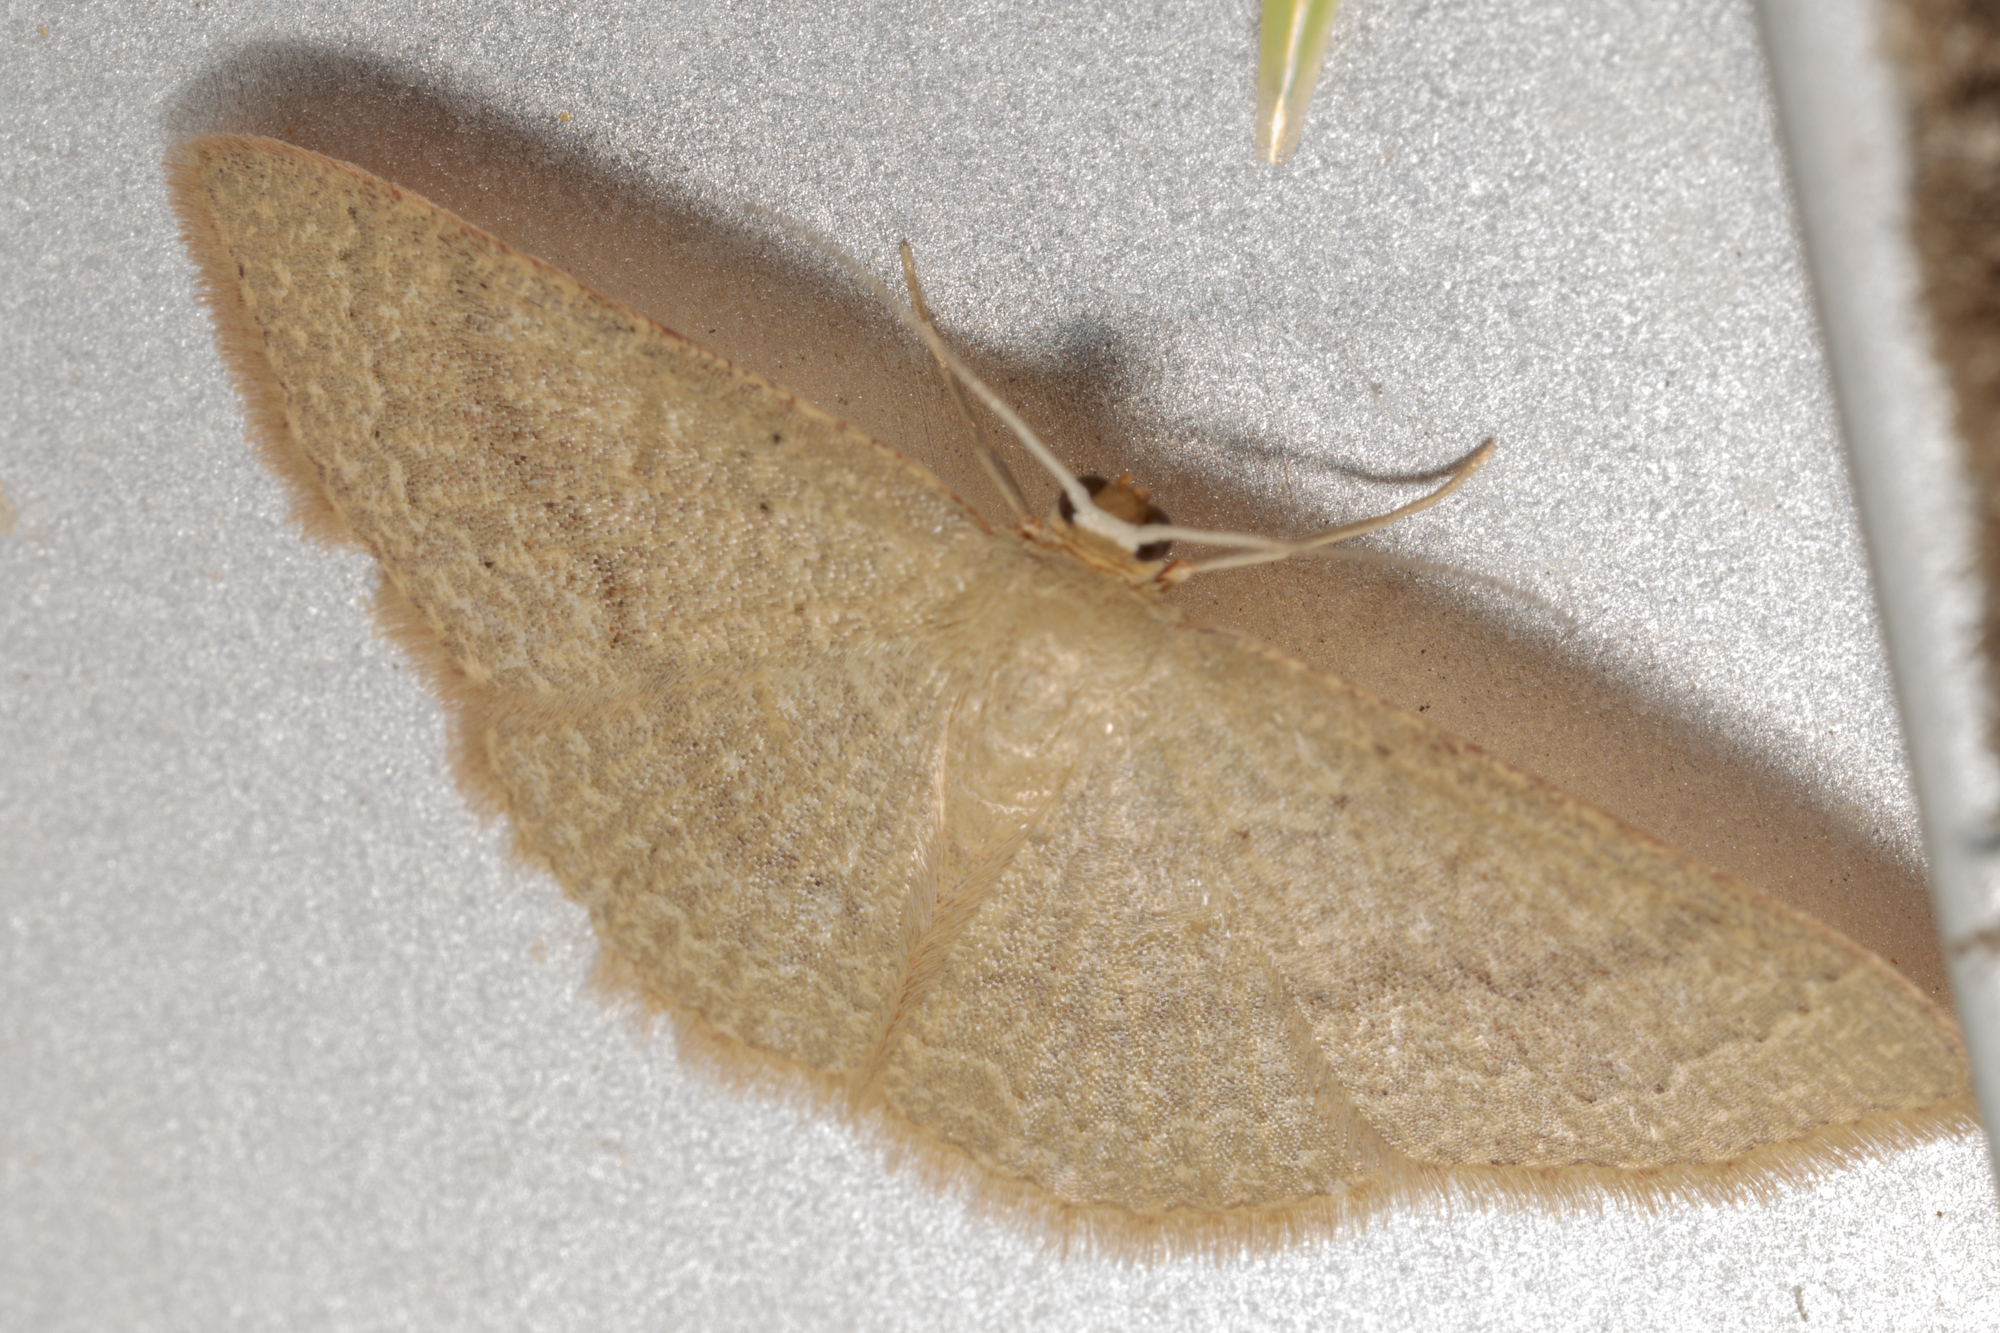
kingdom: Animalia
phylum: Arthropoda
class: Insecta
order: Lepidoptera
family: Geometridae
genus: Pleuroprucha
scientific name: Pleuroprucha insulsaria
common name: Common tan wave
